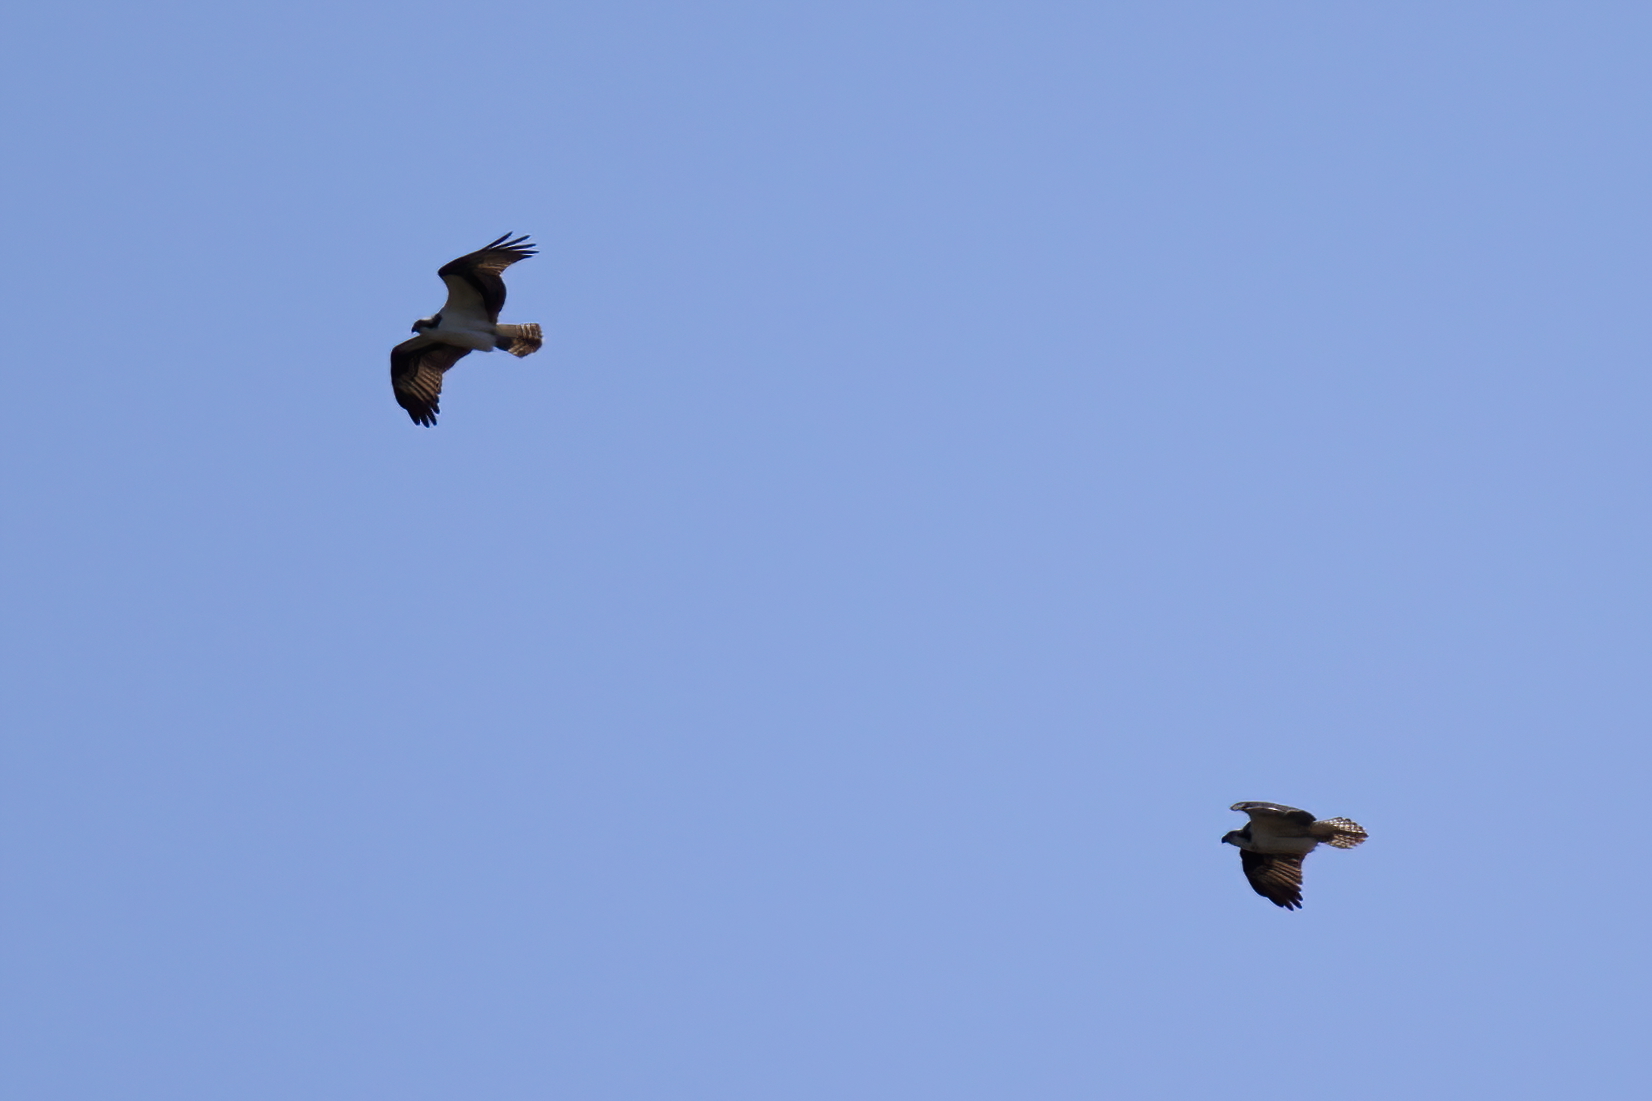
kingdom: Animalia
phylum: Chordata
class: Aves
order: Accipitriformes
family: Pandionidae
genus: Pandion
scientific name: Pandion haliaetus
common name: Osprey
